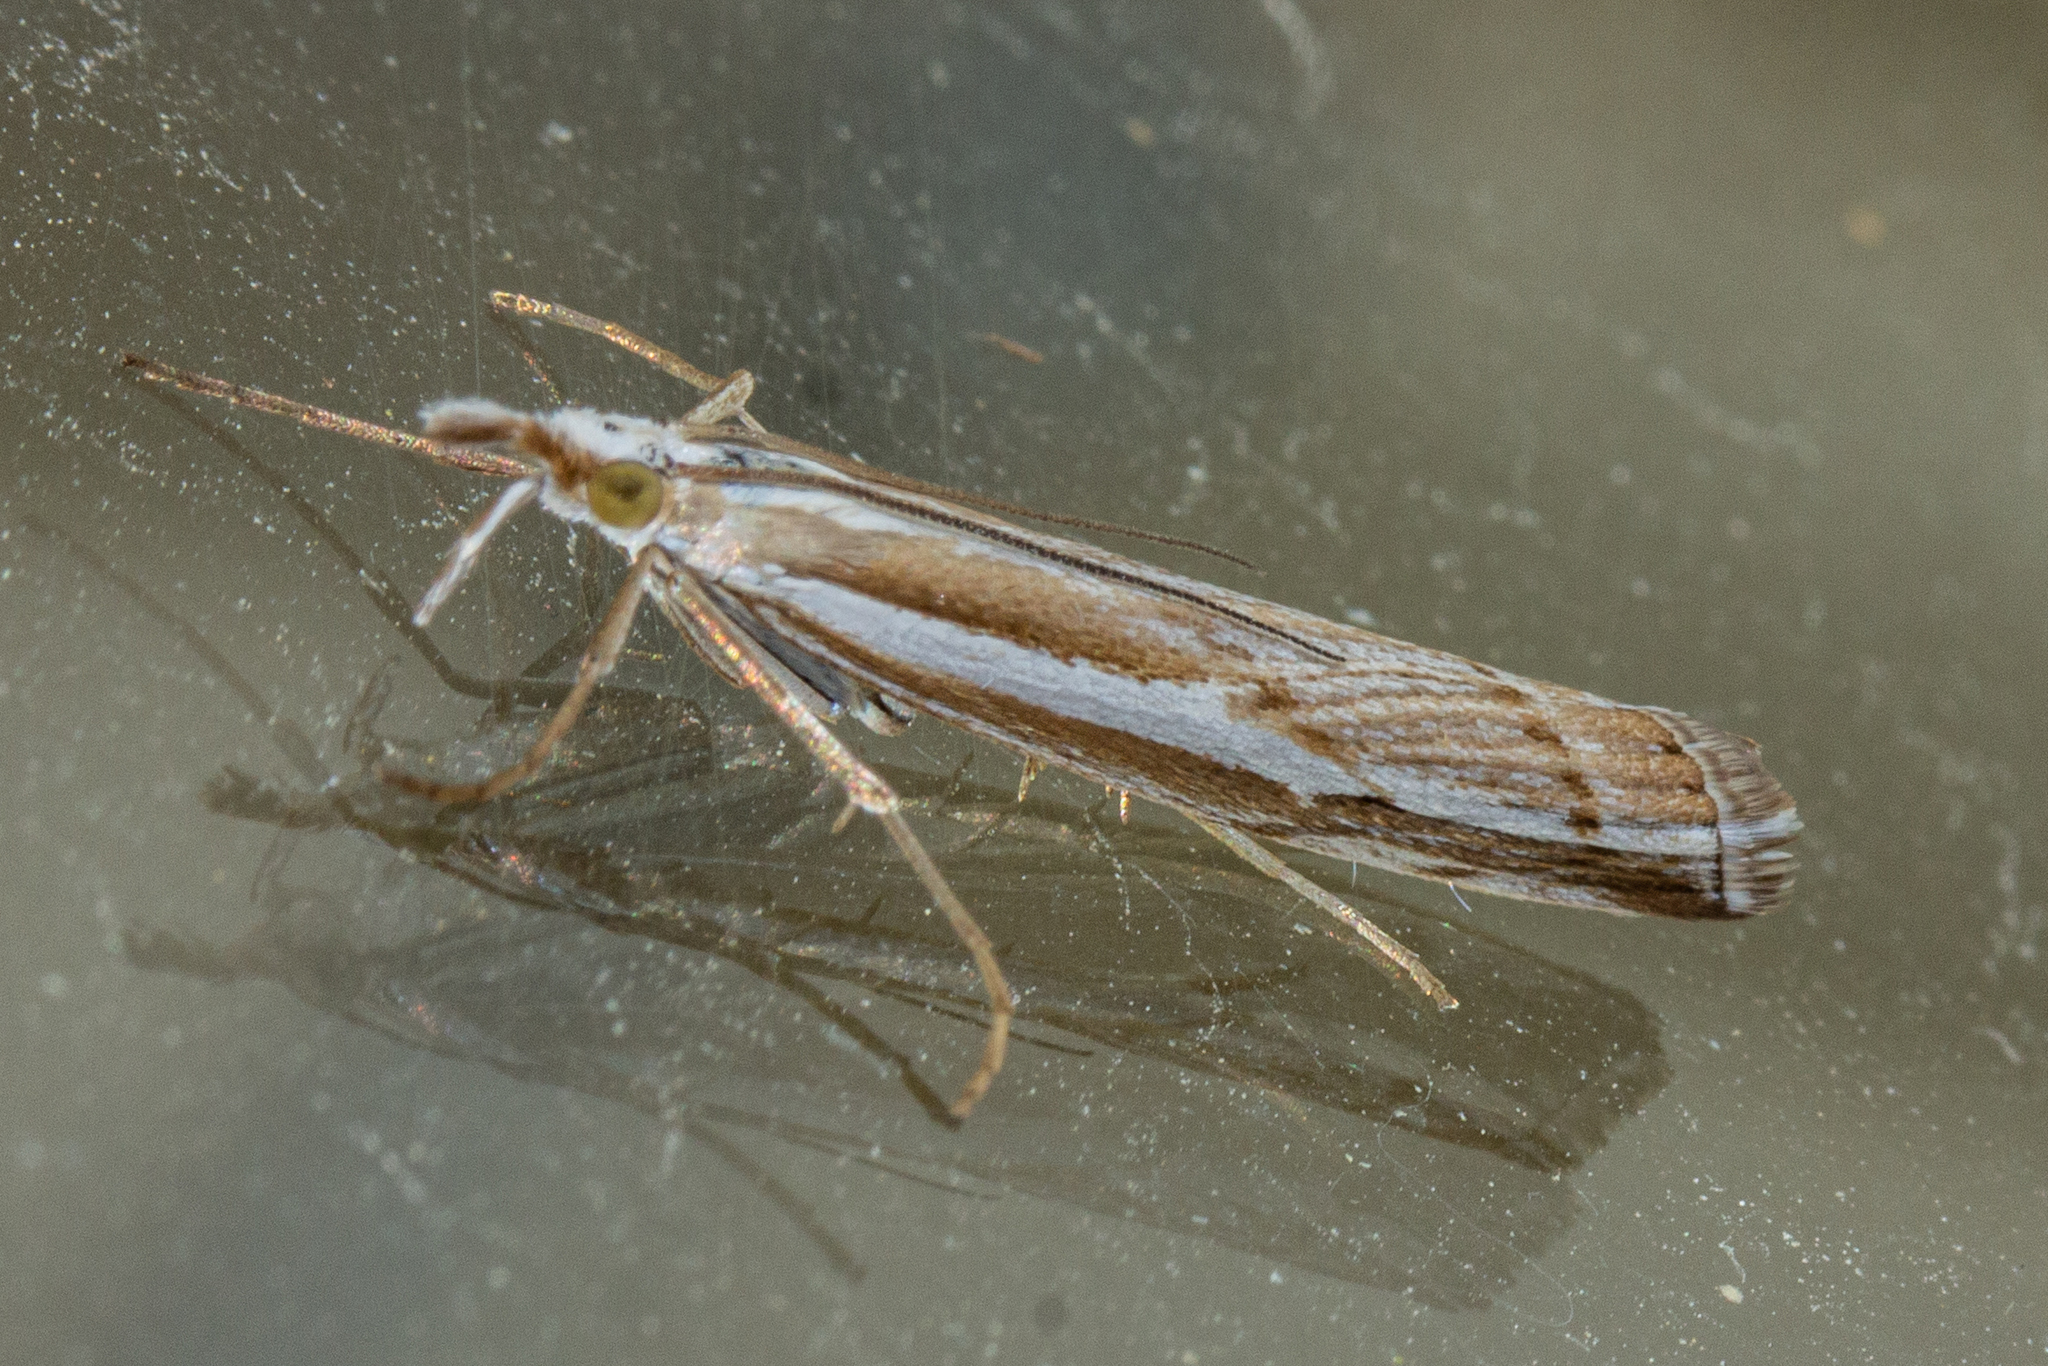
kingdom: Animalia
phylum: Arthropoda
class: Insecta
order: Lepidoptera
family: Crambidae
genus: Orocrambus
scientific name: Orocrambus vittellus
